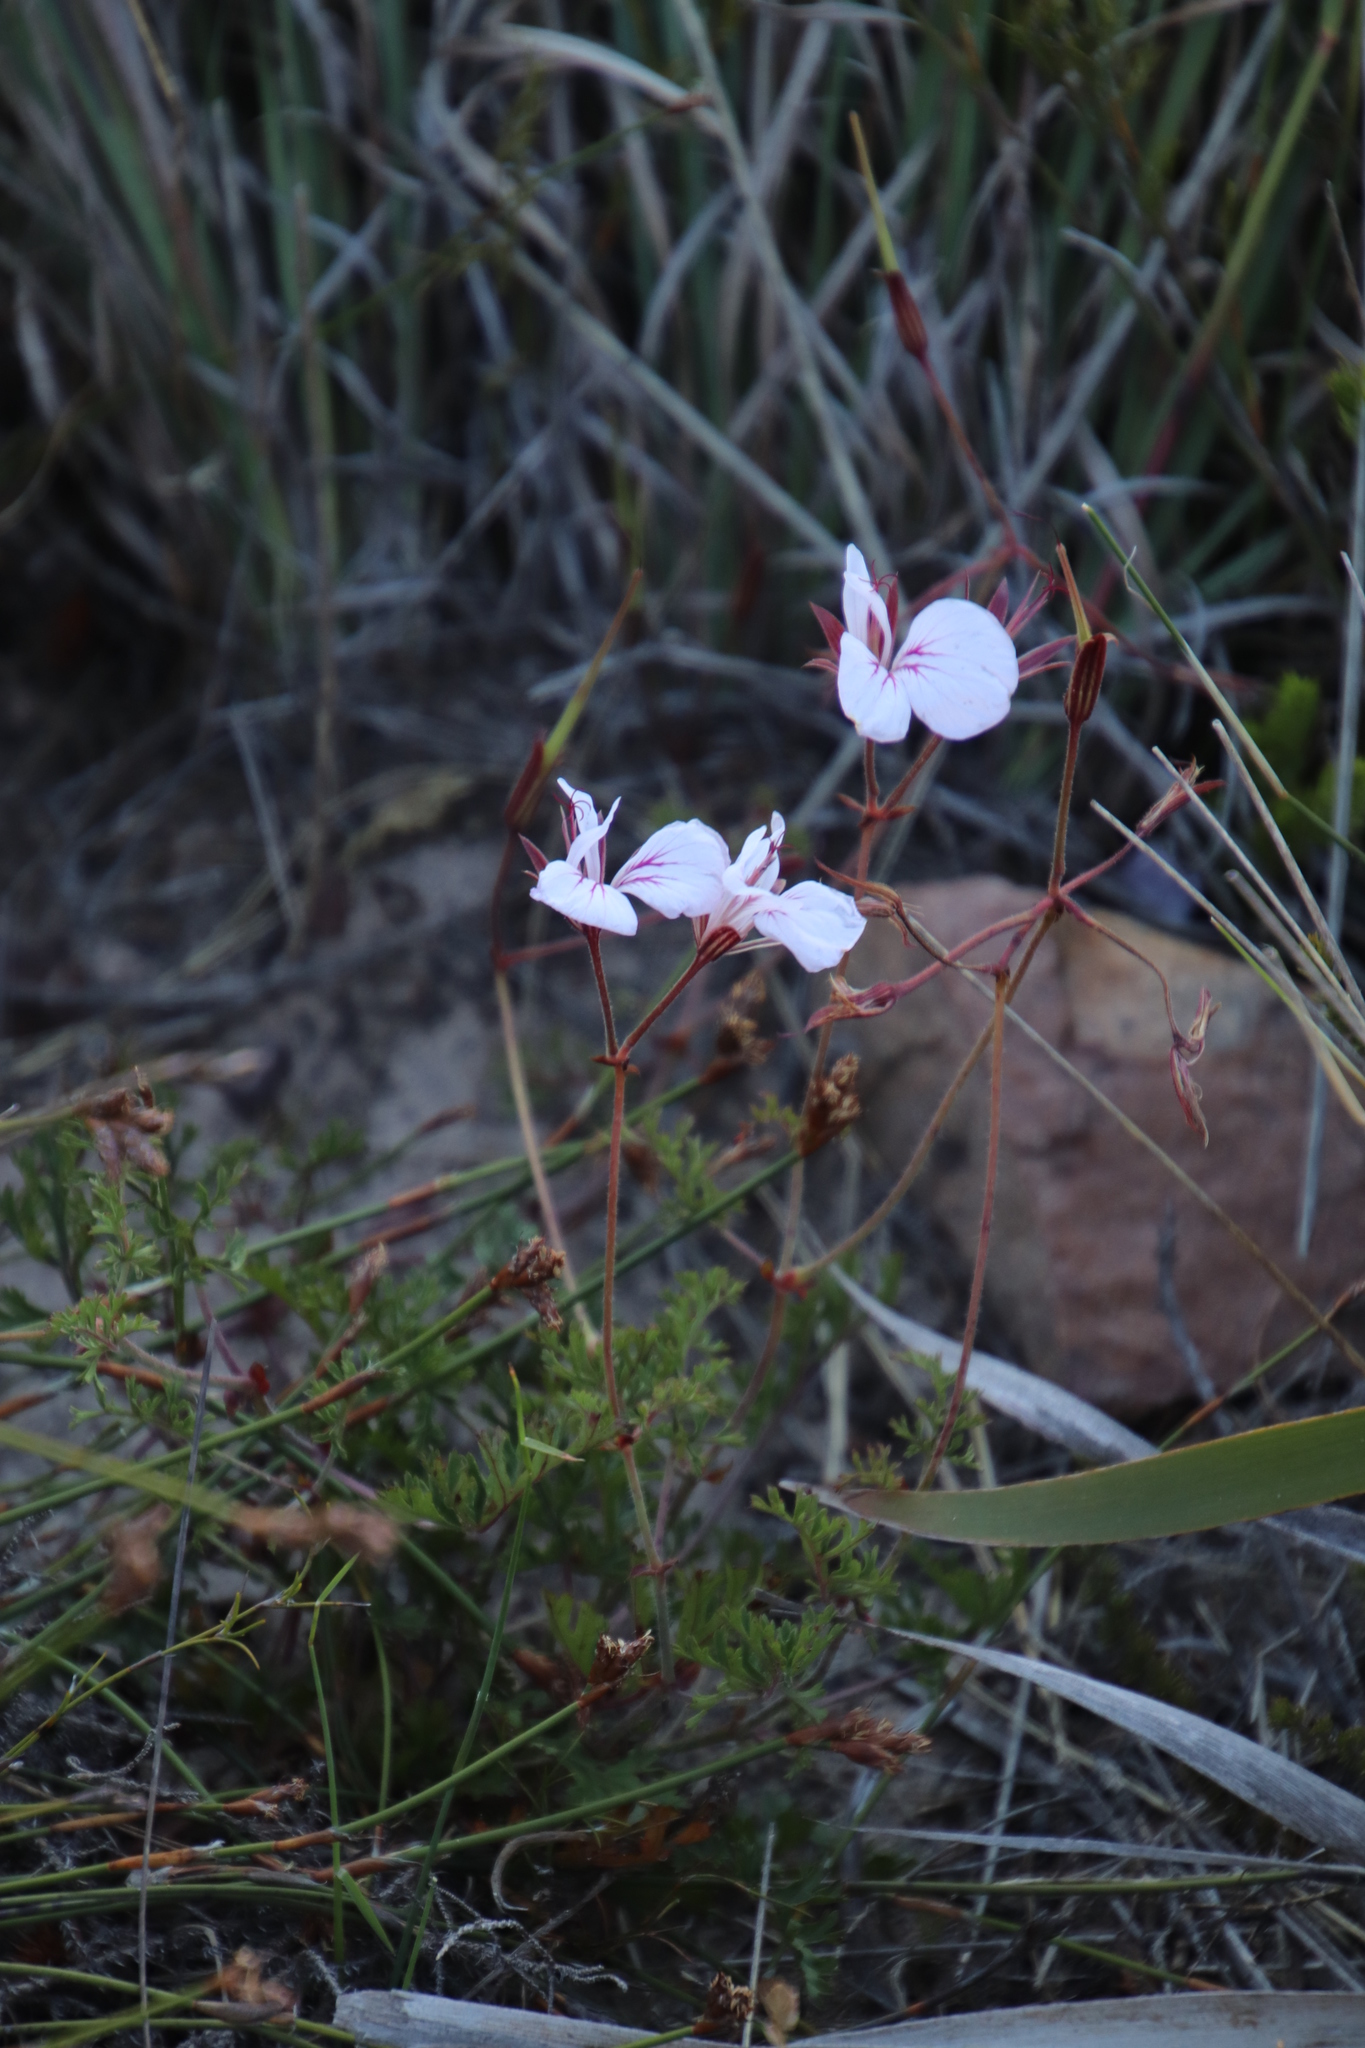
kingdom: Plantae
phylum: Tracheophyta
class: Magnoliopsida
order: Geraniales
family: Geraniaceae
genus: Pelargonium
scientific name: Pelargonium longicaule
